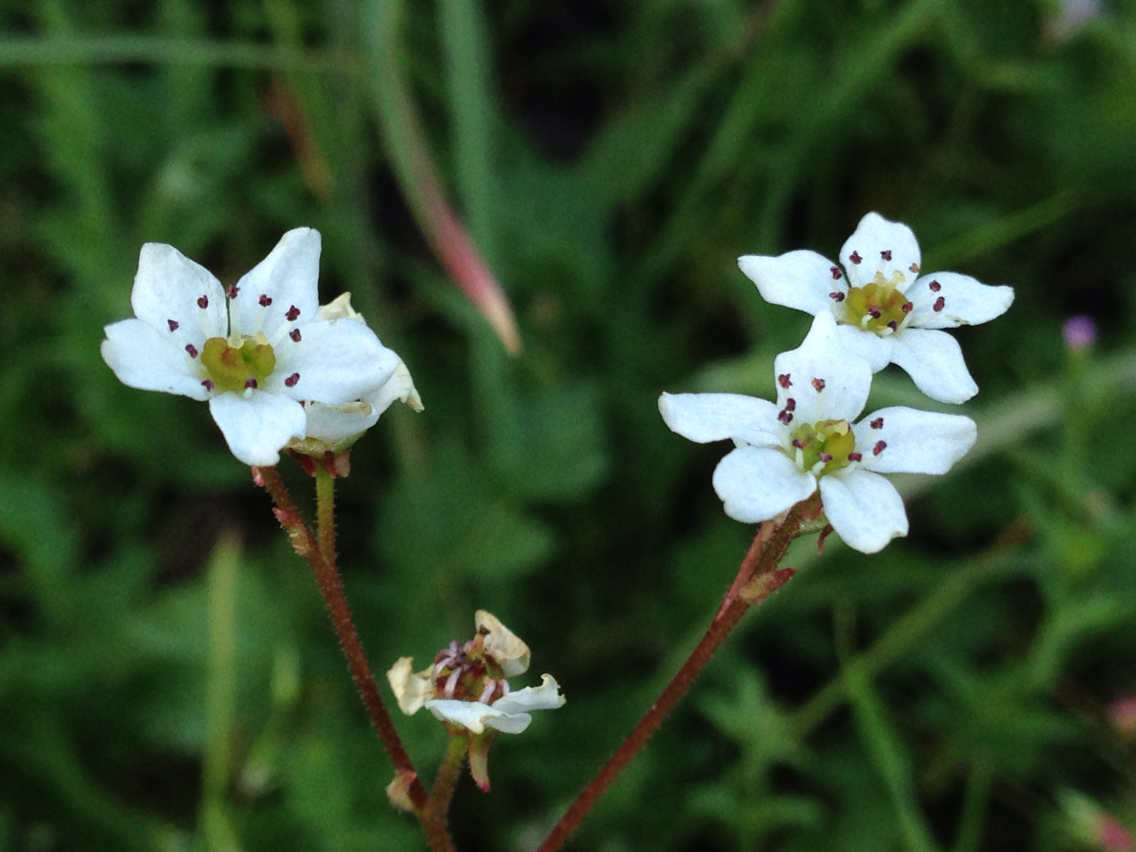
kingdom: Plantae
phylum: Tracheophyta
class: Magnoliopsida
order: Saxifragales
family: Saxifragaceae
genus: Micranthes
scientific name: Micranthes californica
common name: California saxifrage
